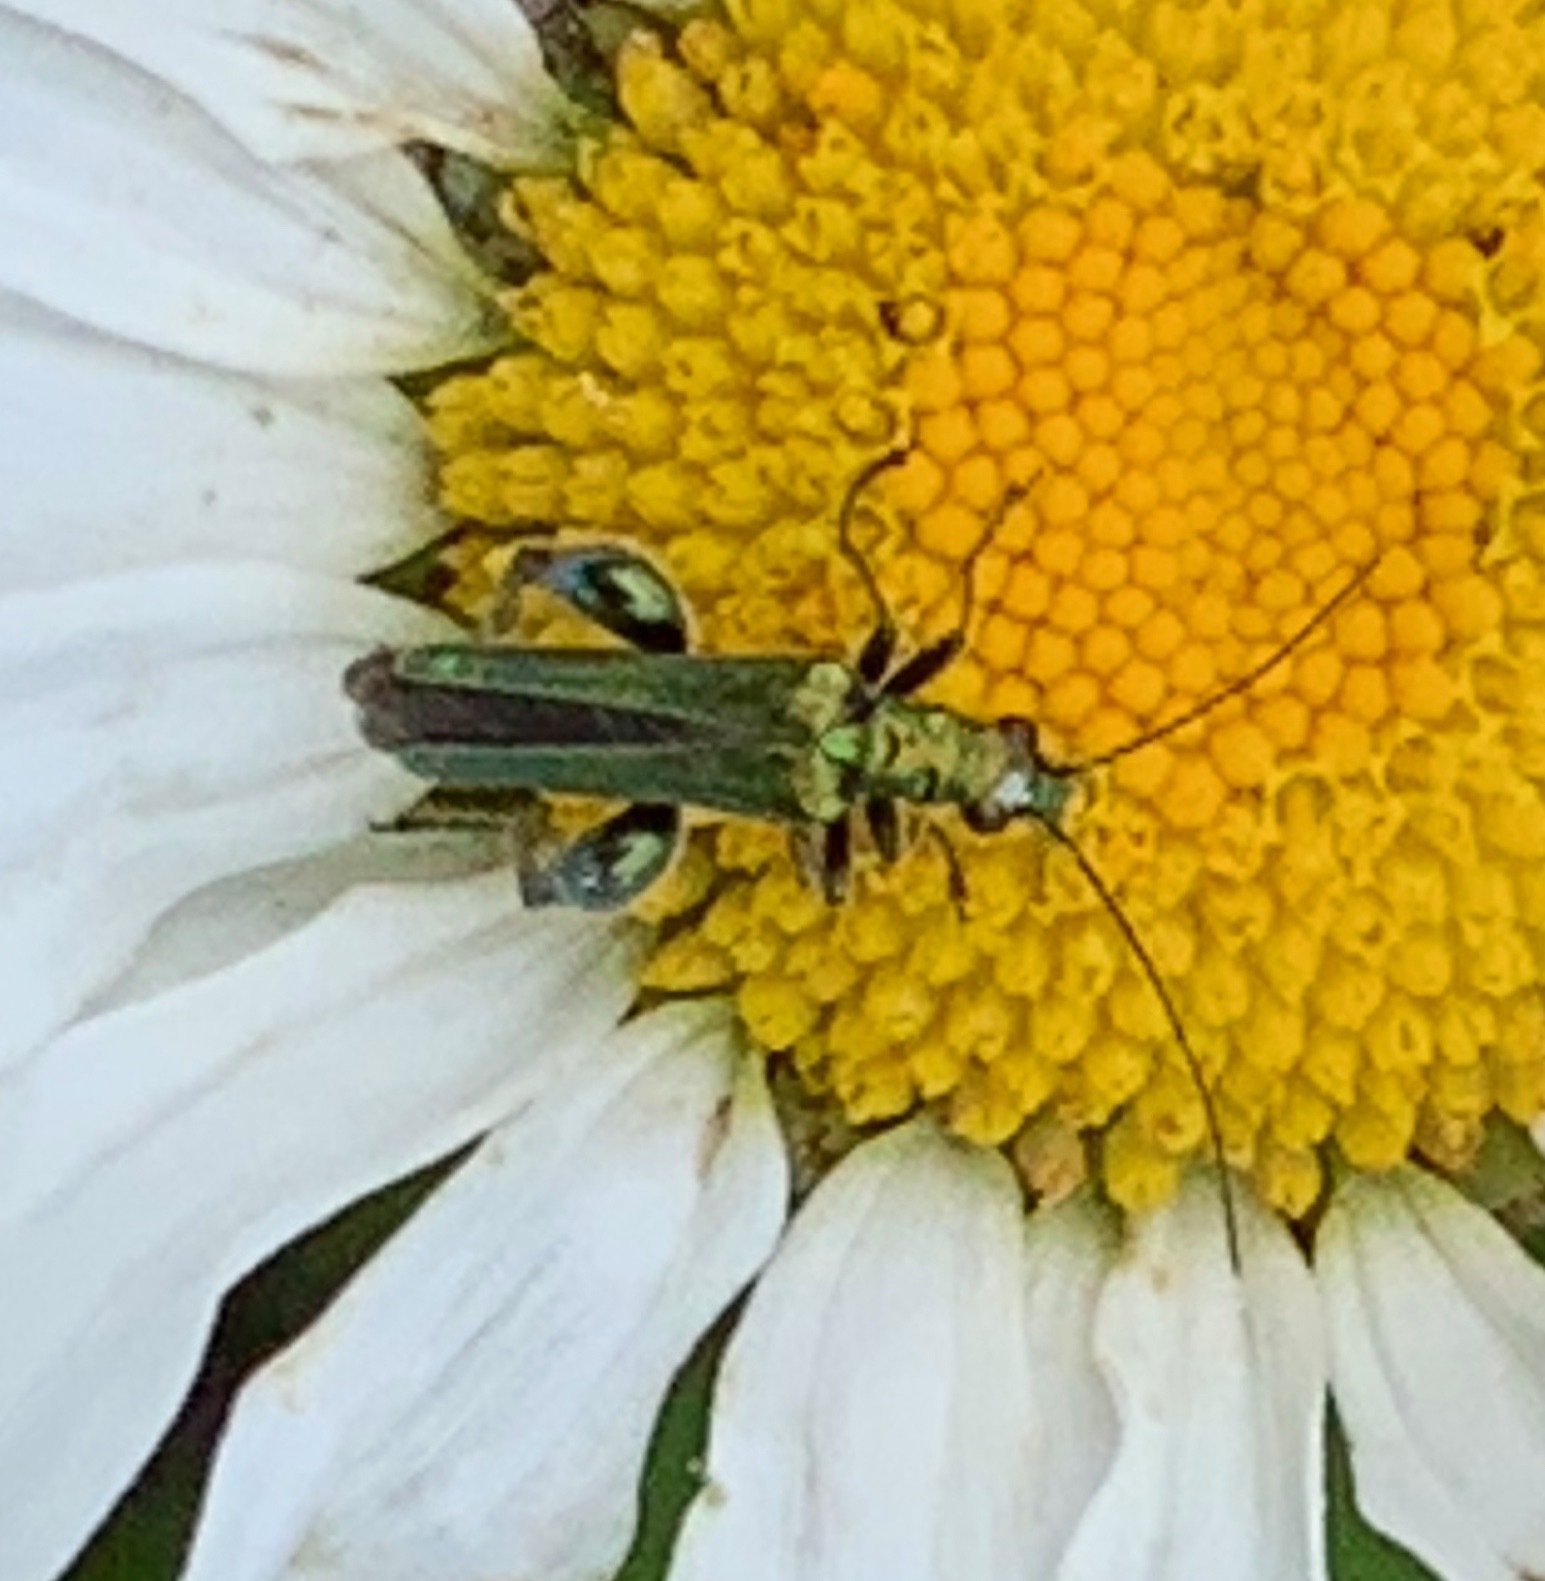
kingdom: Animalia
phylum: Arthropoda
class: Insecta
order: Coleoptera
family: Oedemeridae
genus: Oedemera
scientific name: Oedemera nobilis
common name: Swollen-thighed beetle
